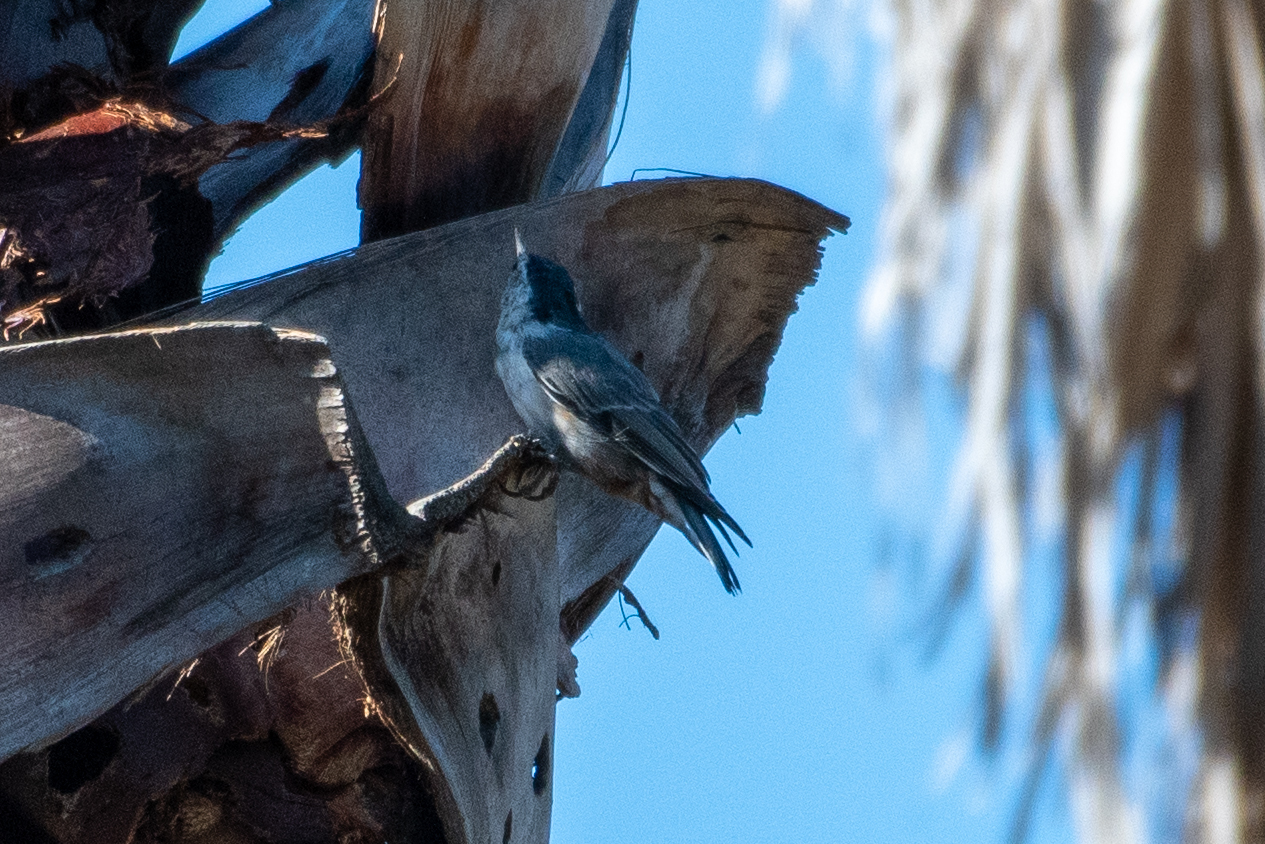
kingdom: Animalia
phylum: Chordata
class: Aves
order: Passeriformes
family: Sittidae
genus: Sitta
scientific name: Sitta carolinensis
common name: White-breasted nuthatch
